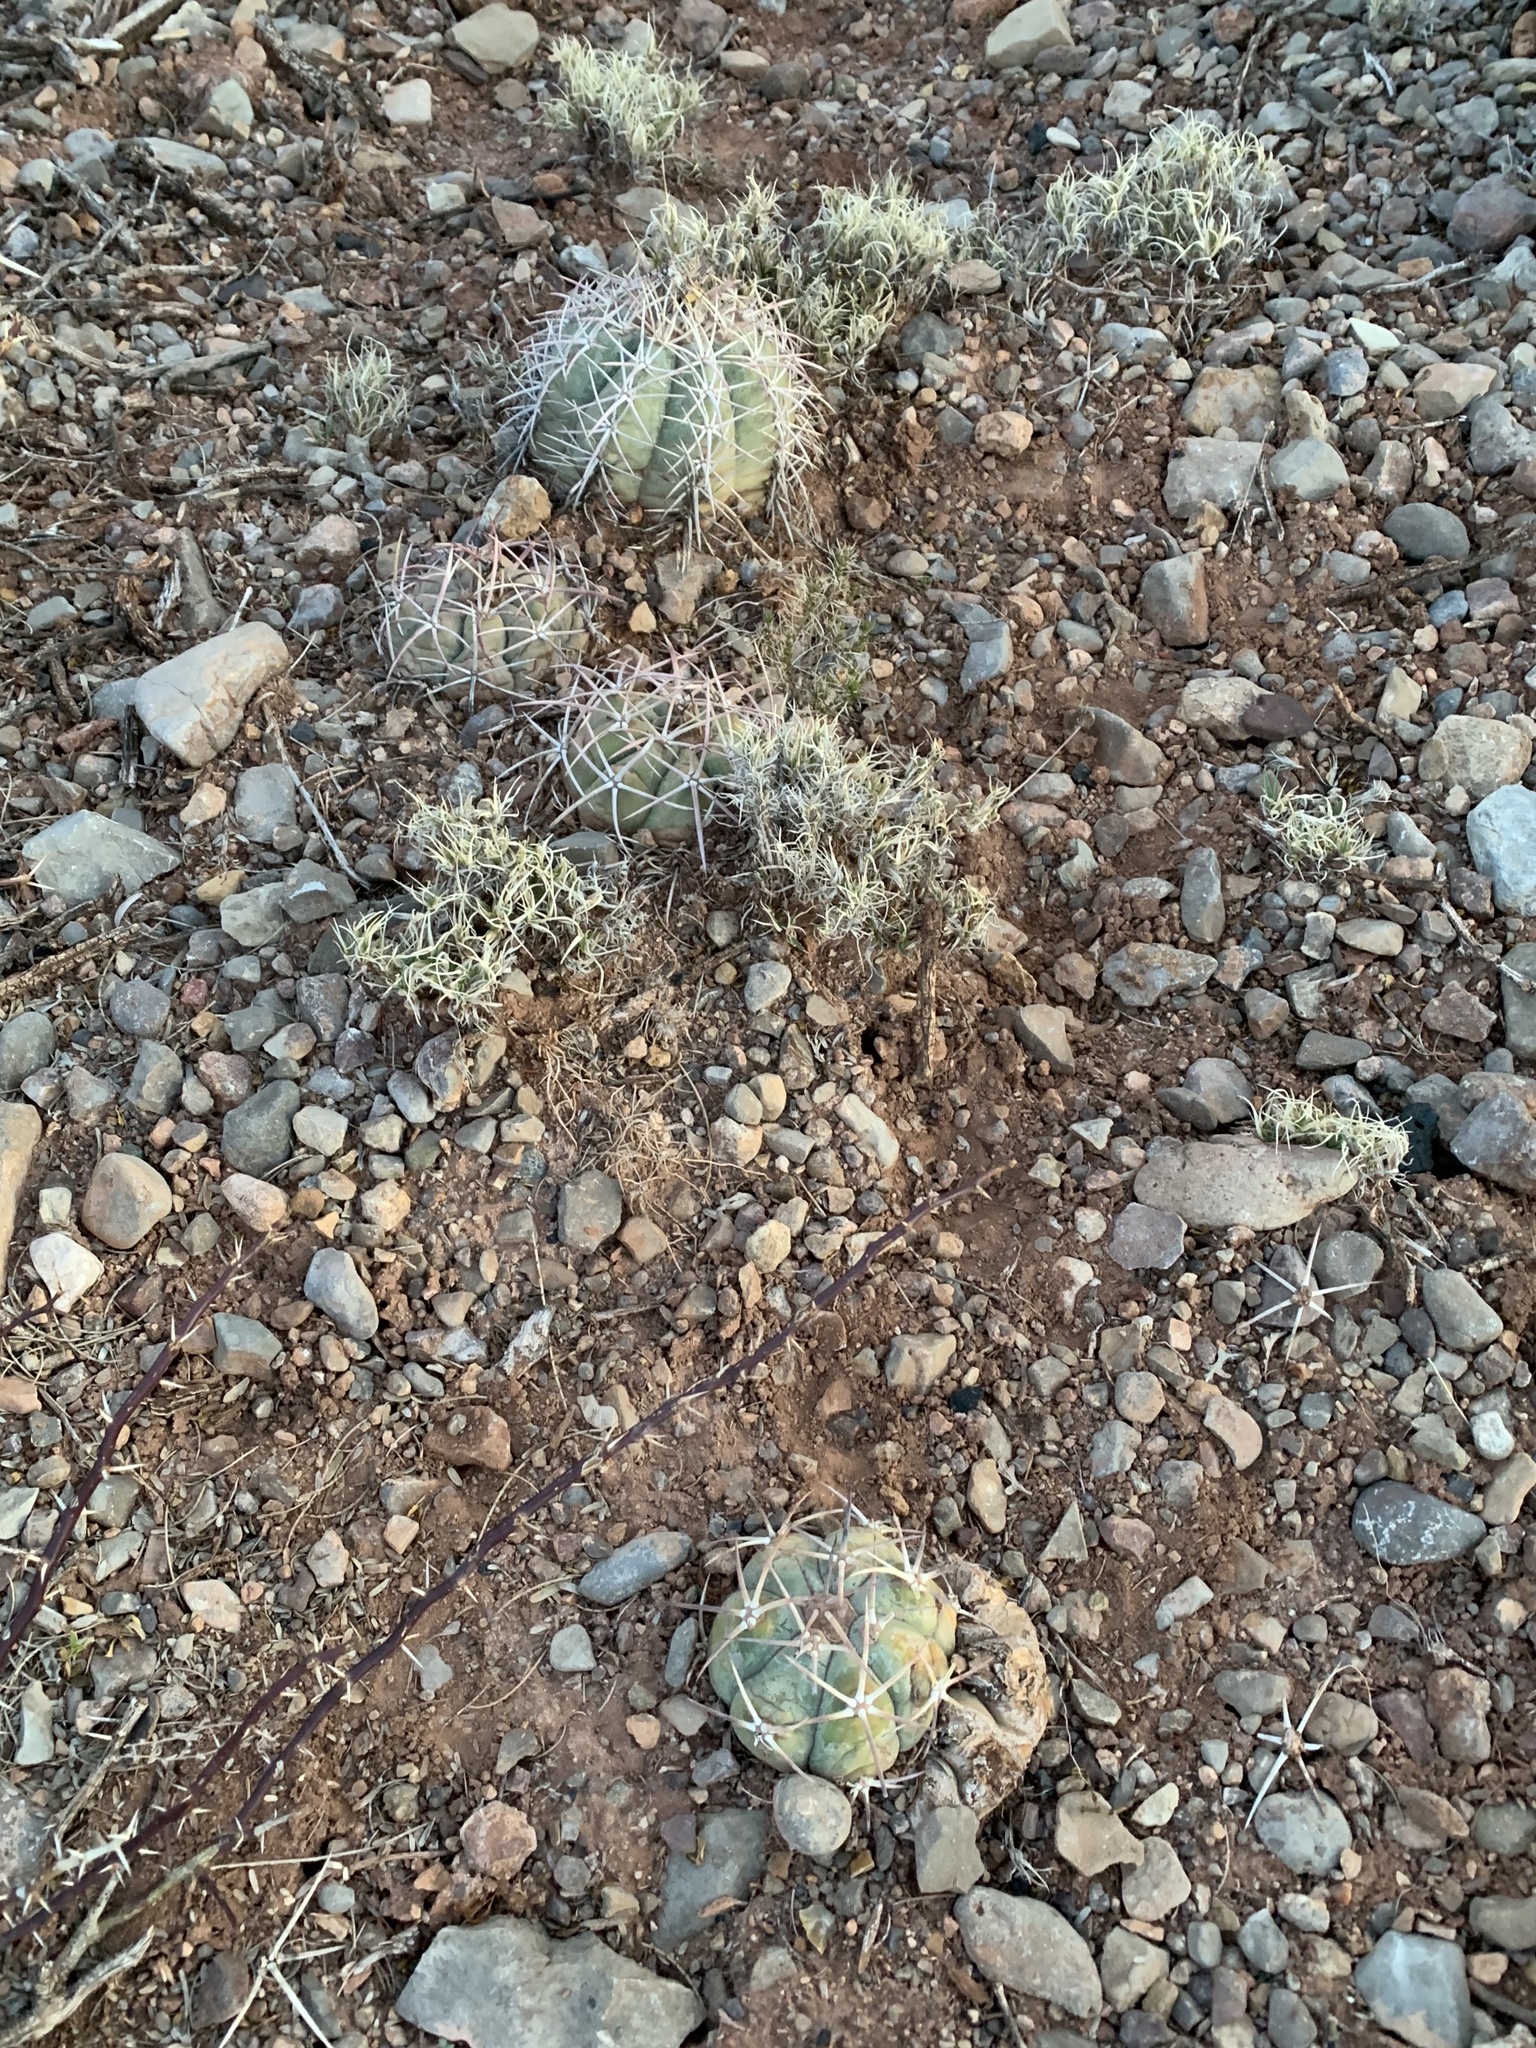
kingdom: Plantae
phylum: Tracheophyta
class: Magnoliopsida
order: Caryophyllales
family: Cactaceae
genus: Echinocactus
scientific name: Echinocactus horizonthalonius
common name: Devilshead
